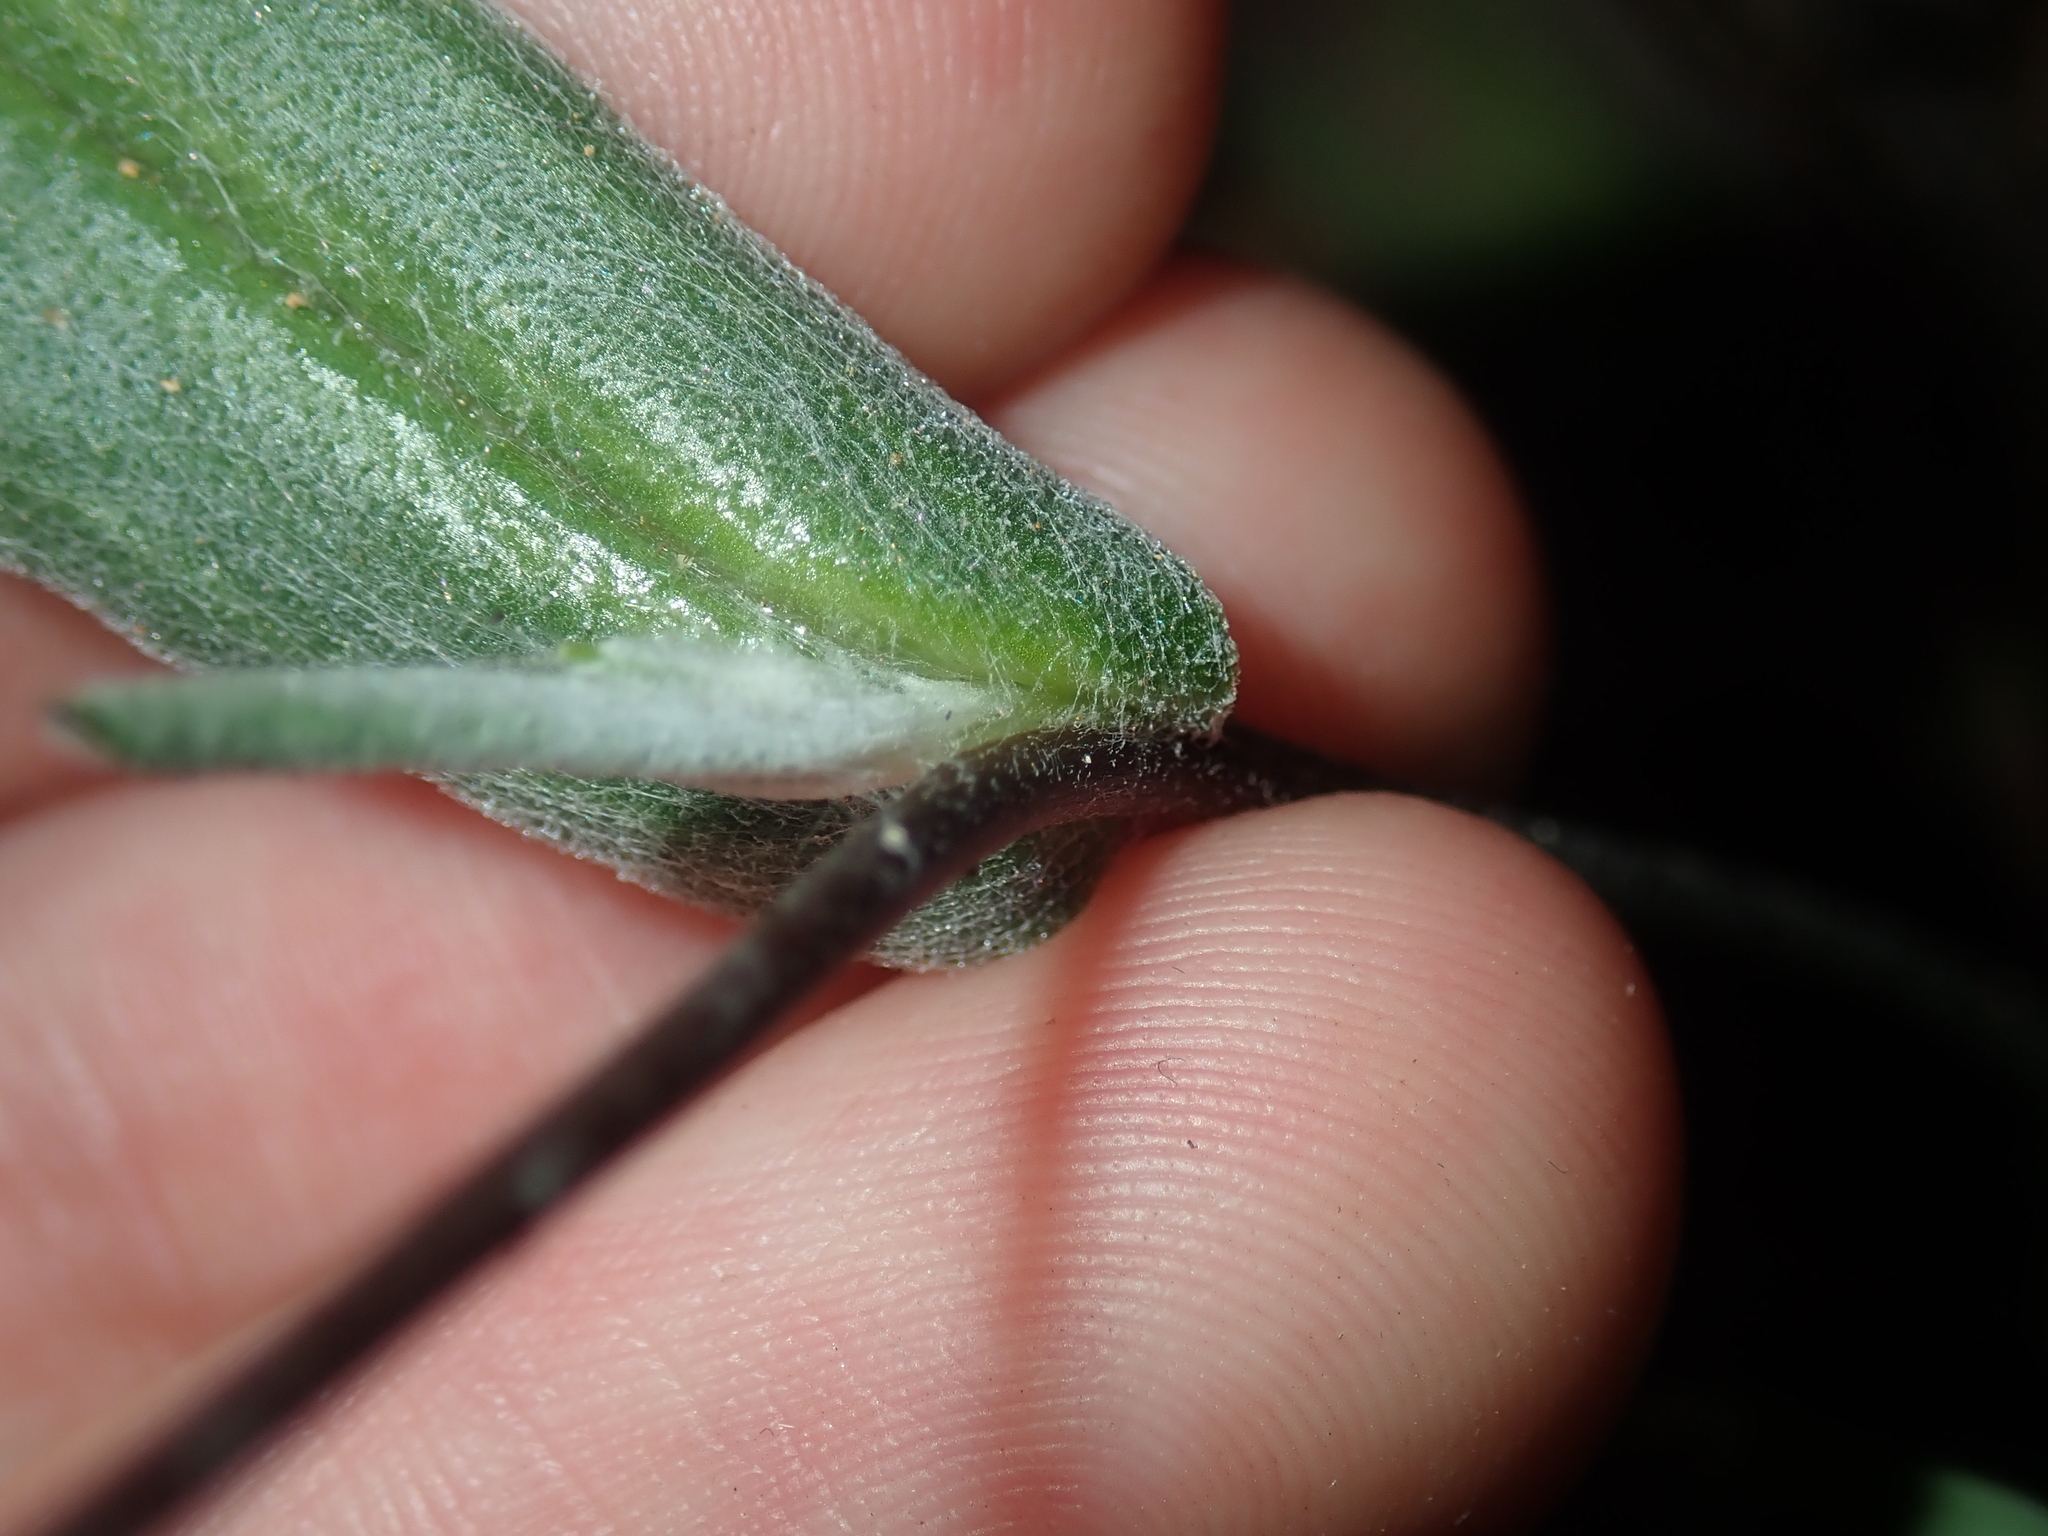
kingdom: Plantae
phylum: Tracheophyta
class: Magnoliopsida
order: Asterales
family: Asteraceae
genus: Podolepis
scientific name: Podolepis aristata
